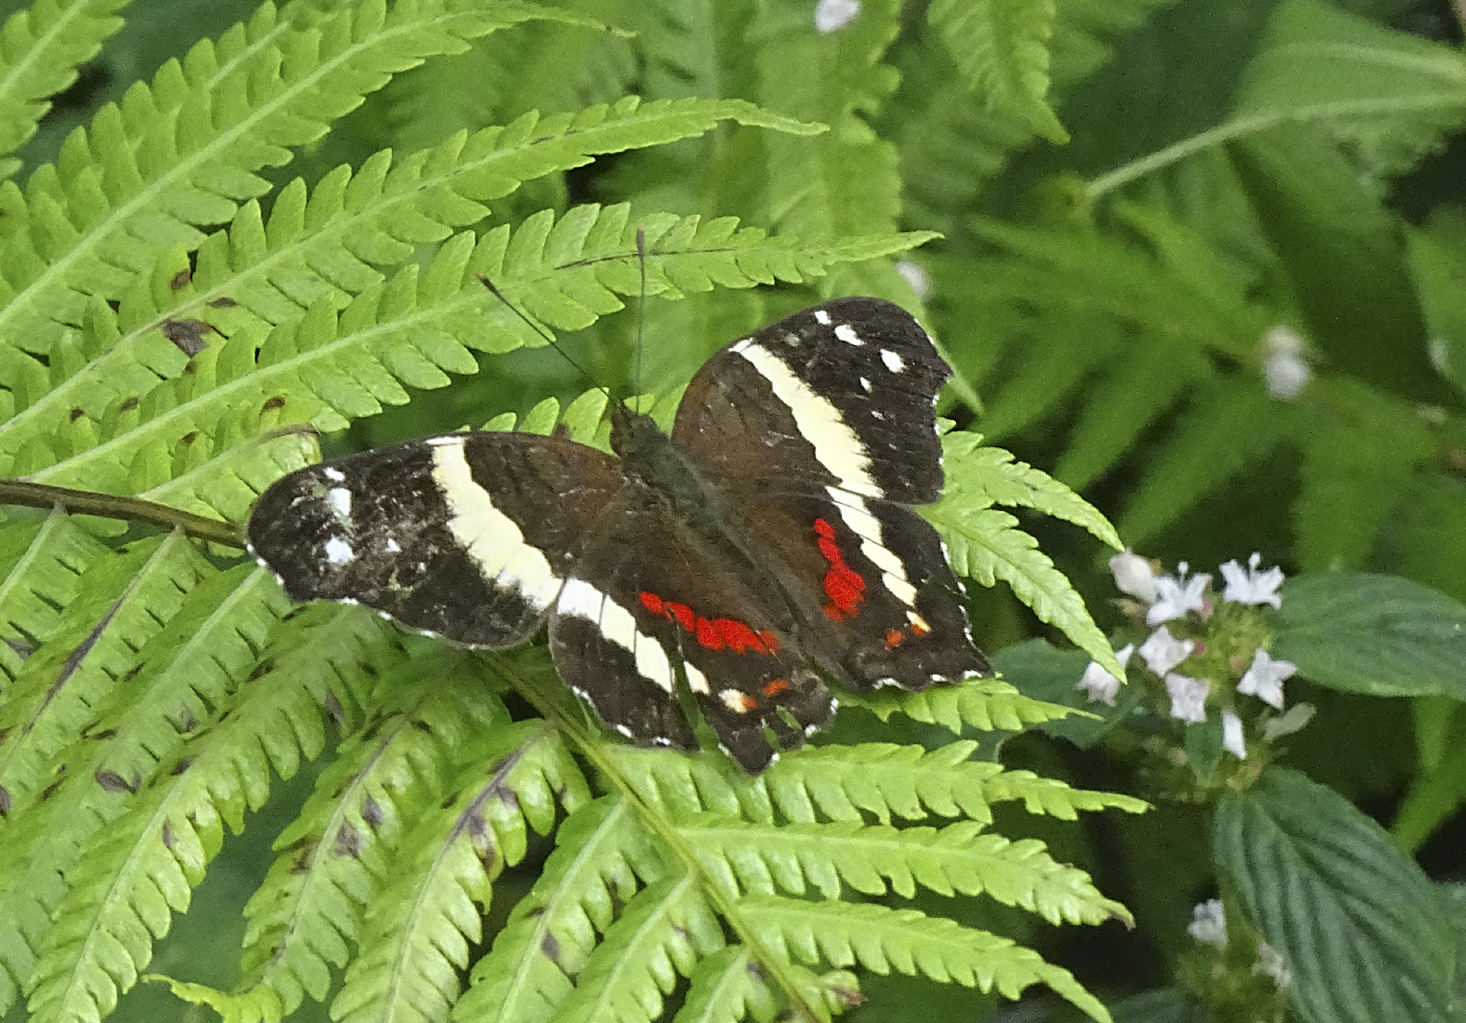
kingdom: Animalia
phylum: Arthropoda
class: Insecta
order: Lepidoptera
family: Nymphalidae
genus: Anartia
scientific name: Anartia fatima
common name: Banded peacock
